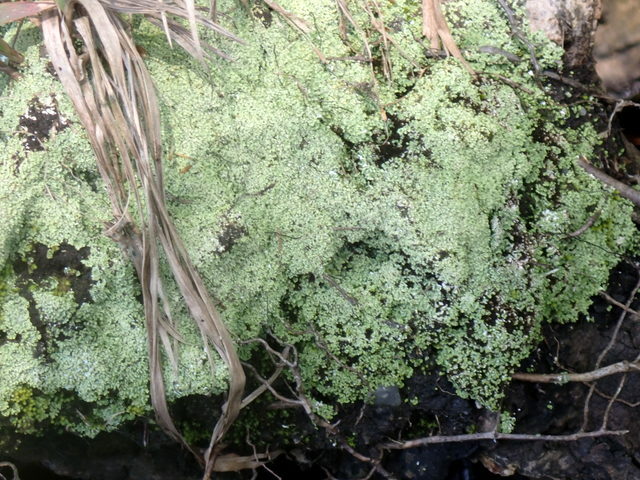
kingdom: Plantae
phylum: Bryophyta
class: Bryopsida
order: Dicranales
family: Leucobryaceae
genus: Leucobryum
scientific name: Leucobryum albidum
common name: White moss
